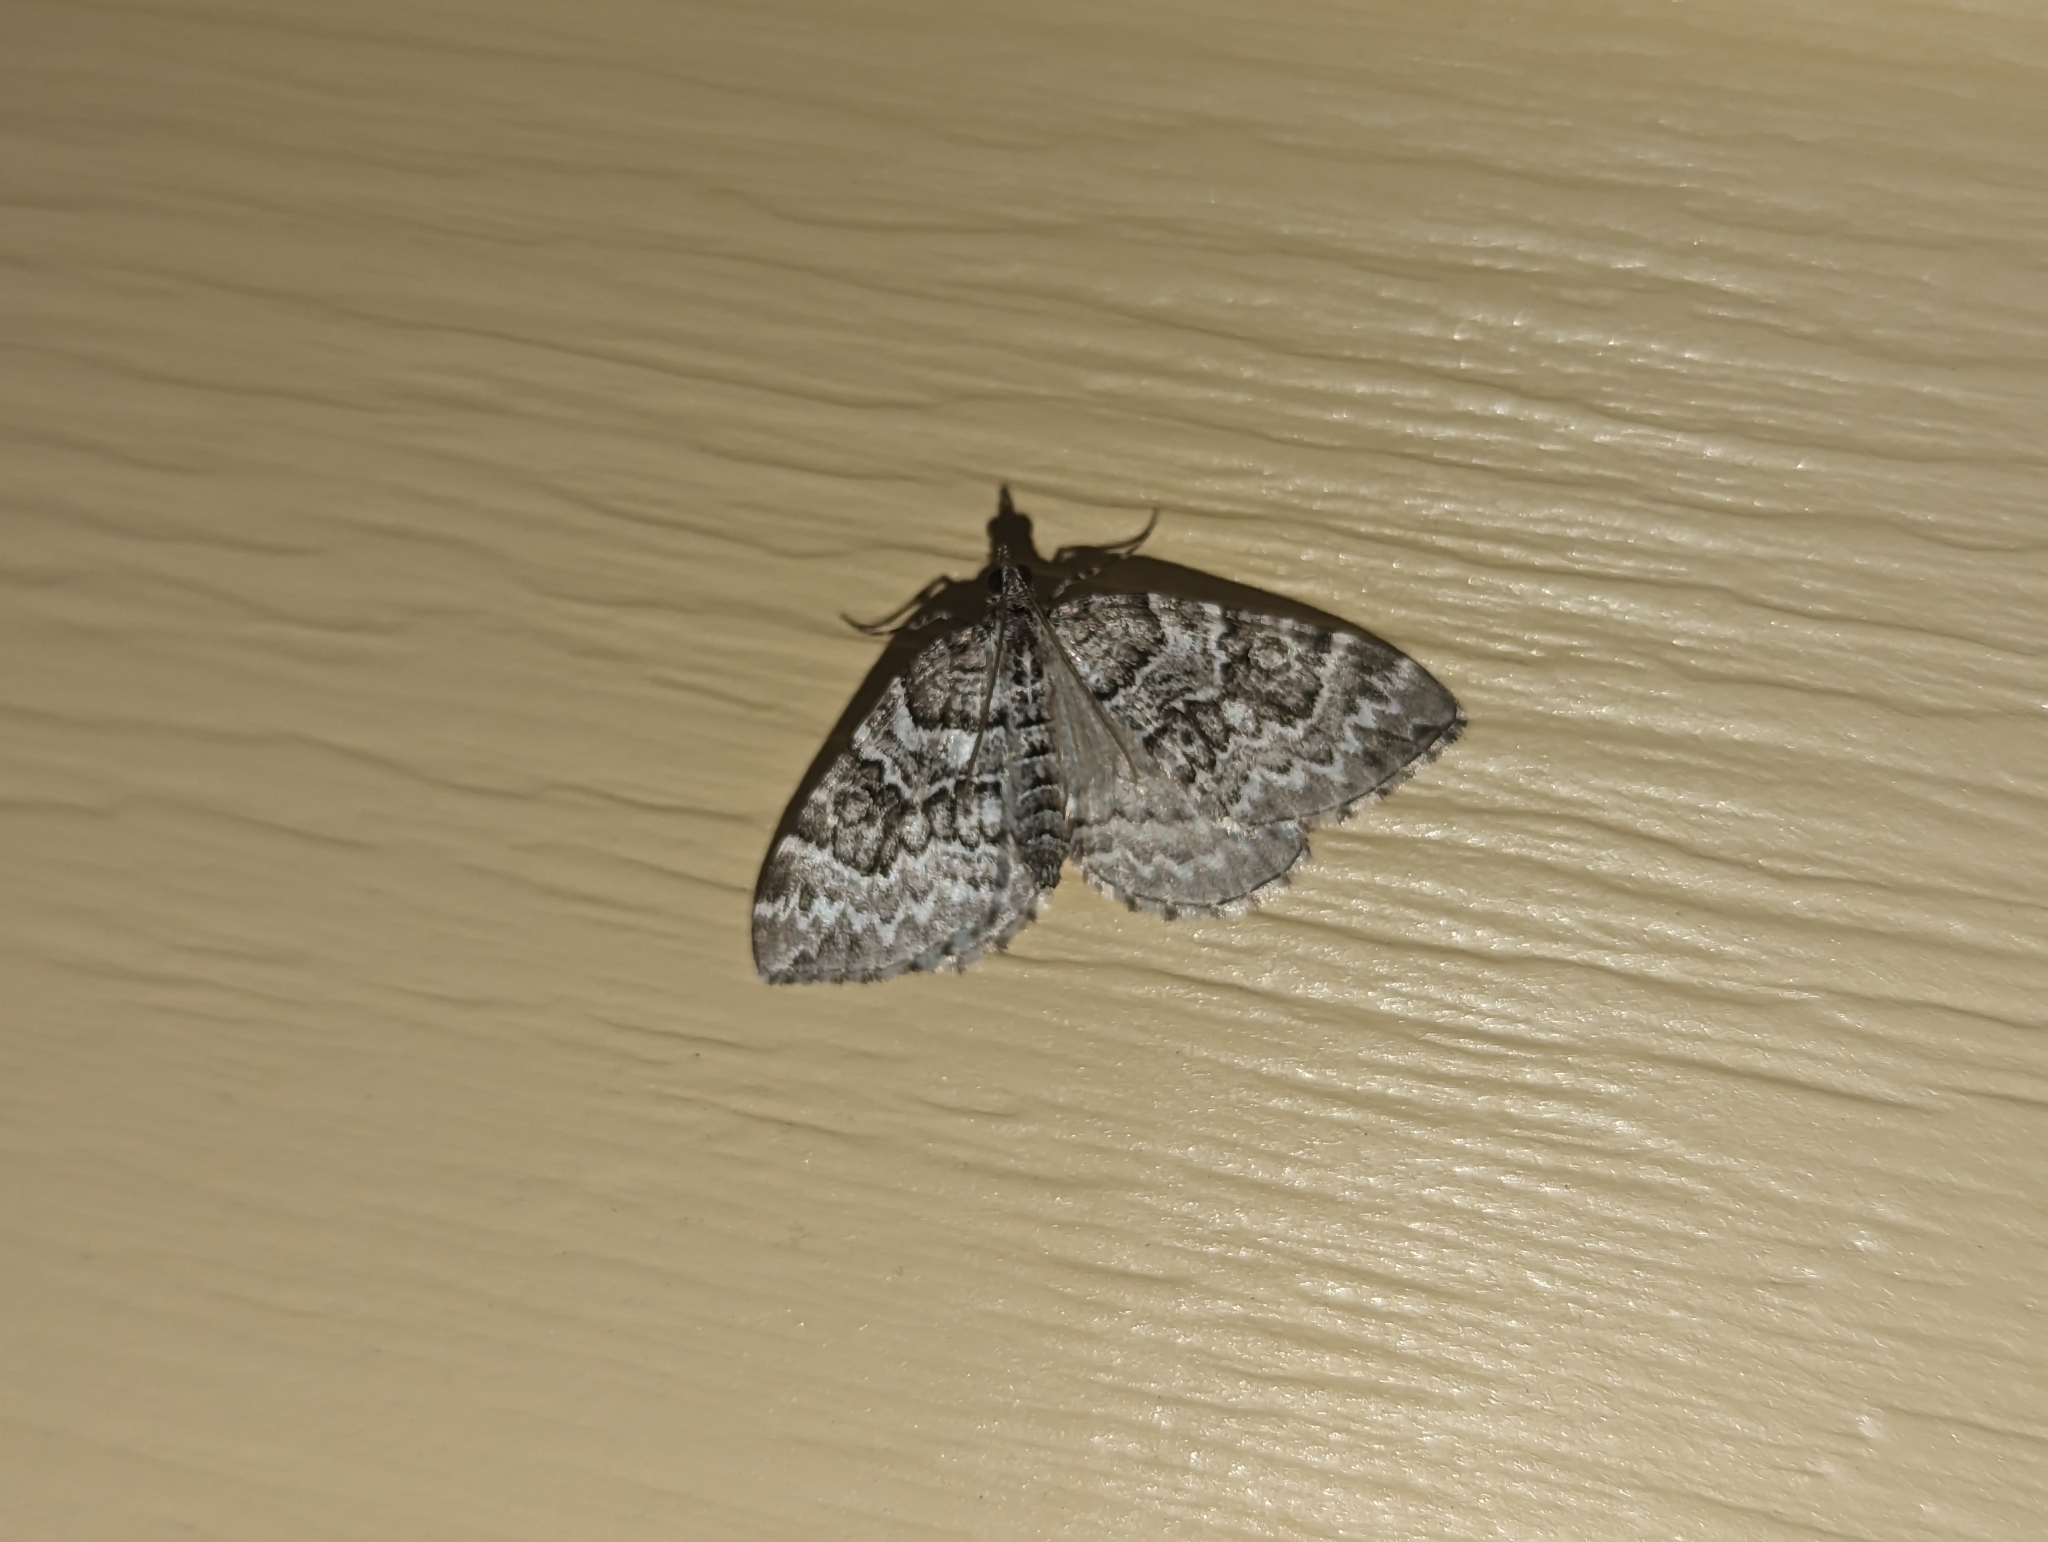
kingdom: Animalia
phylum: Arthropoda
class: Insecta
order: Lepidoptera
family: Geometridae
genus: Eulithis
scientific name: Eulithis explanata
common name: White eulithis
